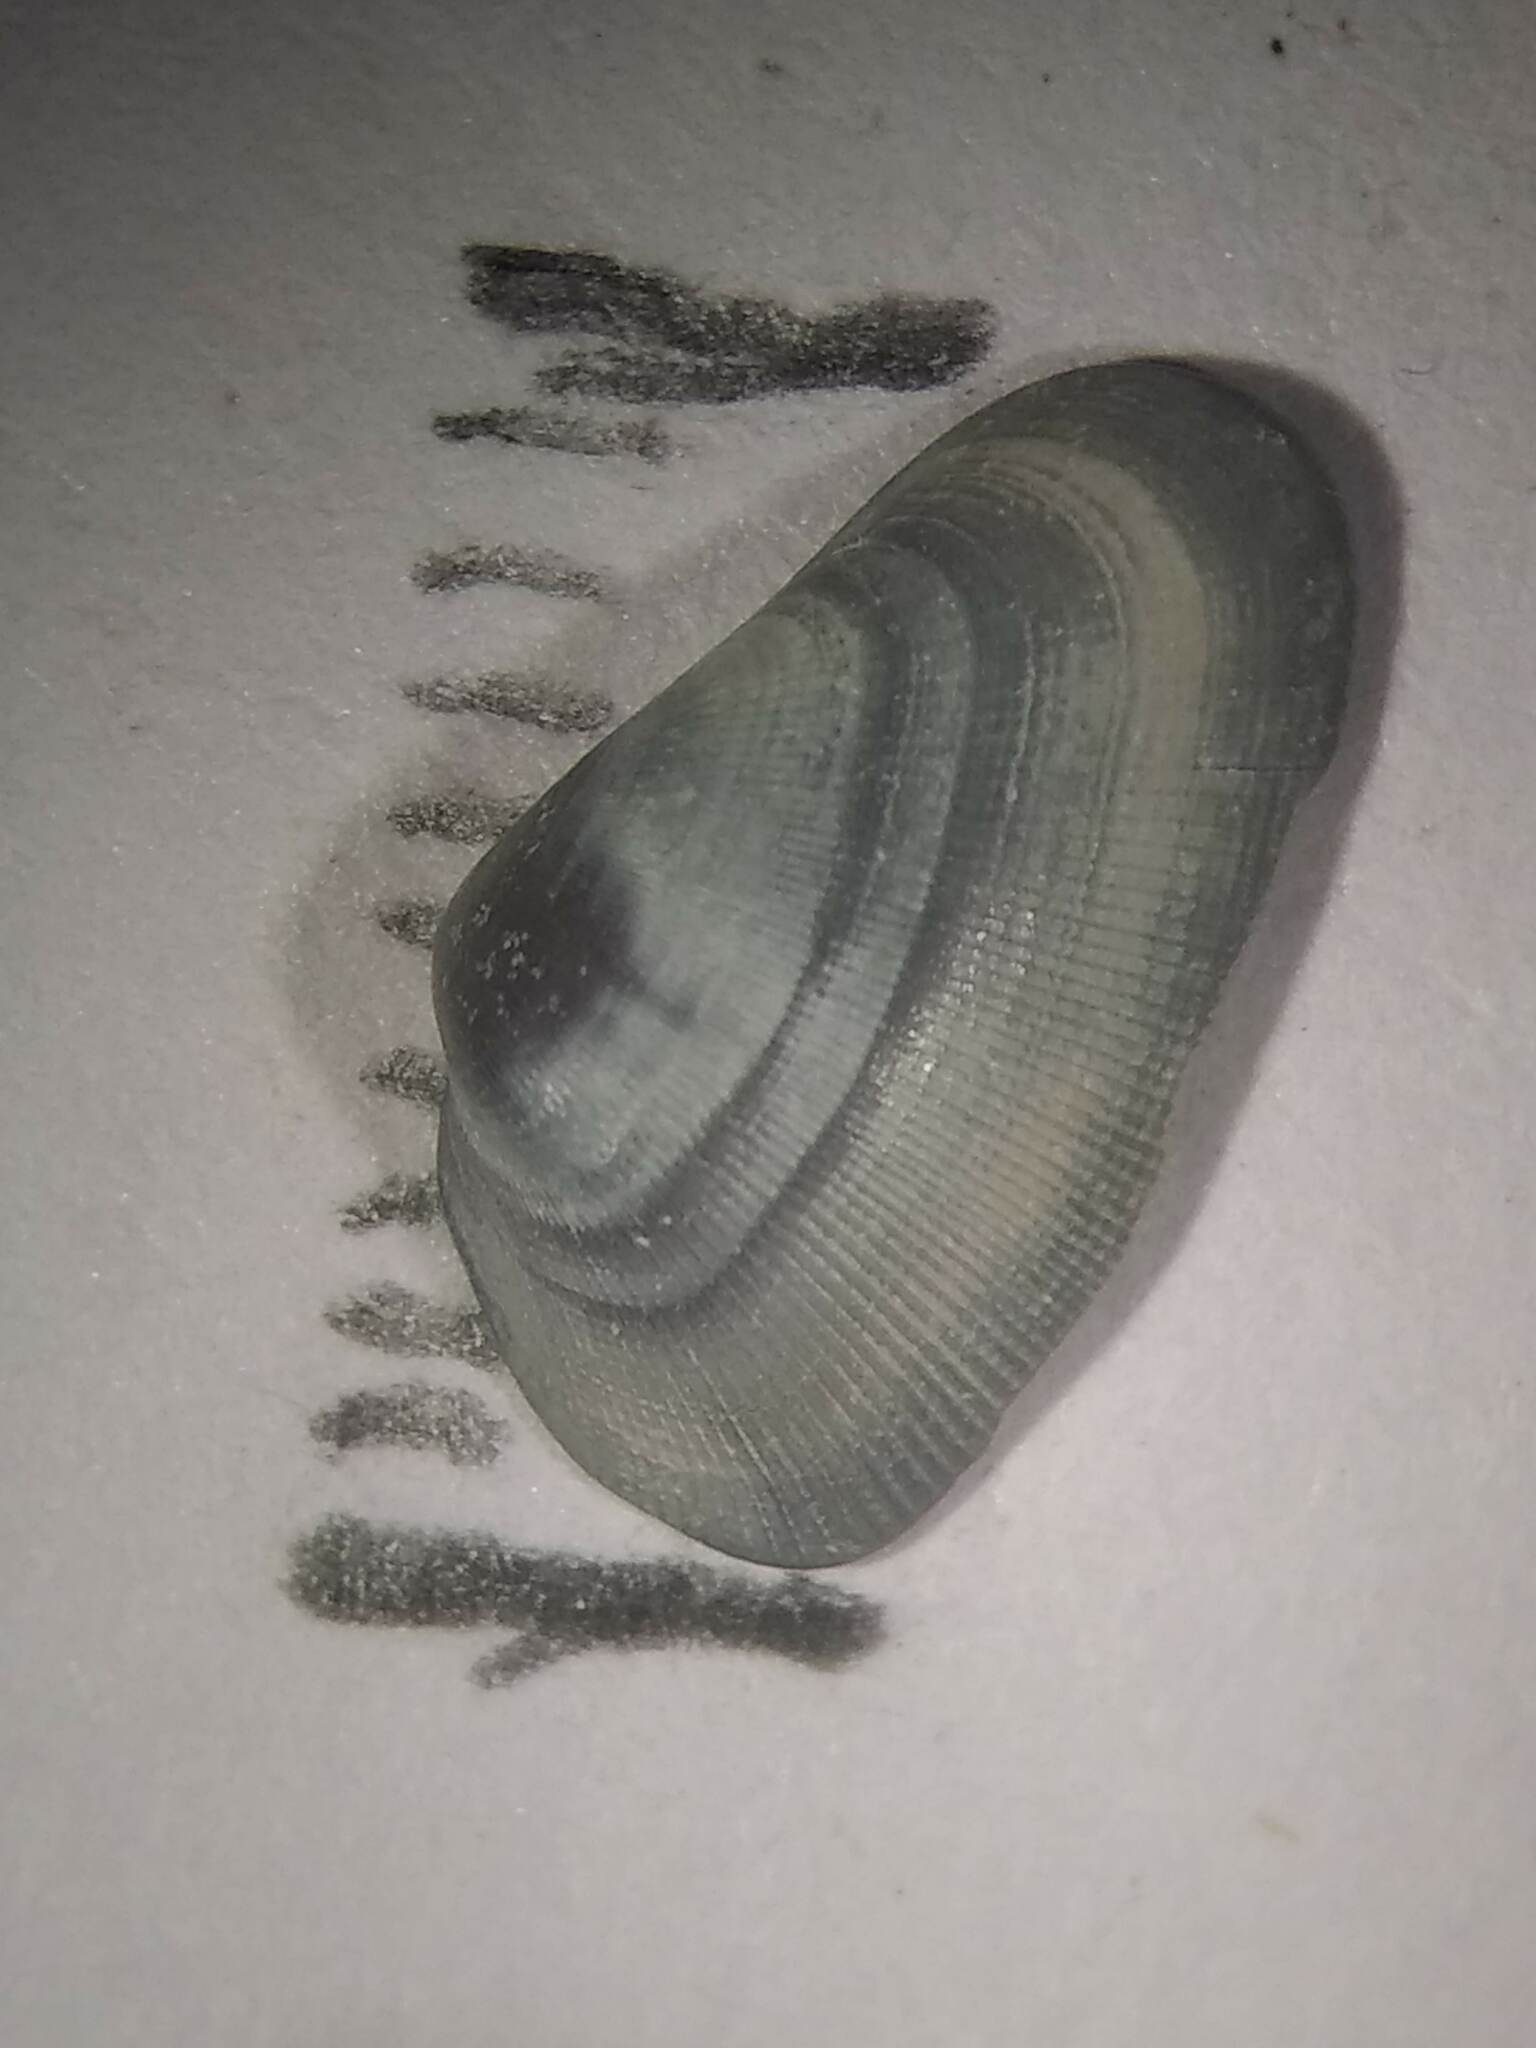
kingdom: Animalia
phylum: Mollusca
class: Bivalvia
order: Cardiida
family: Donacidae
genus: Donax
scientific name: Donax variabilis
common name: Butterfly shell
